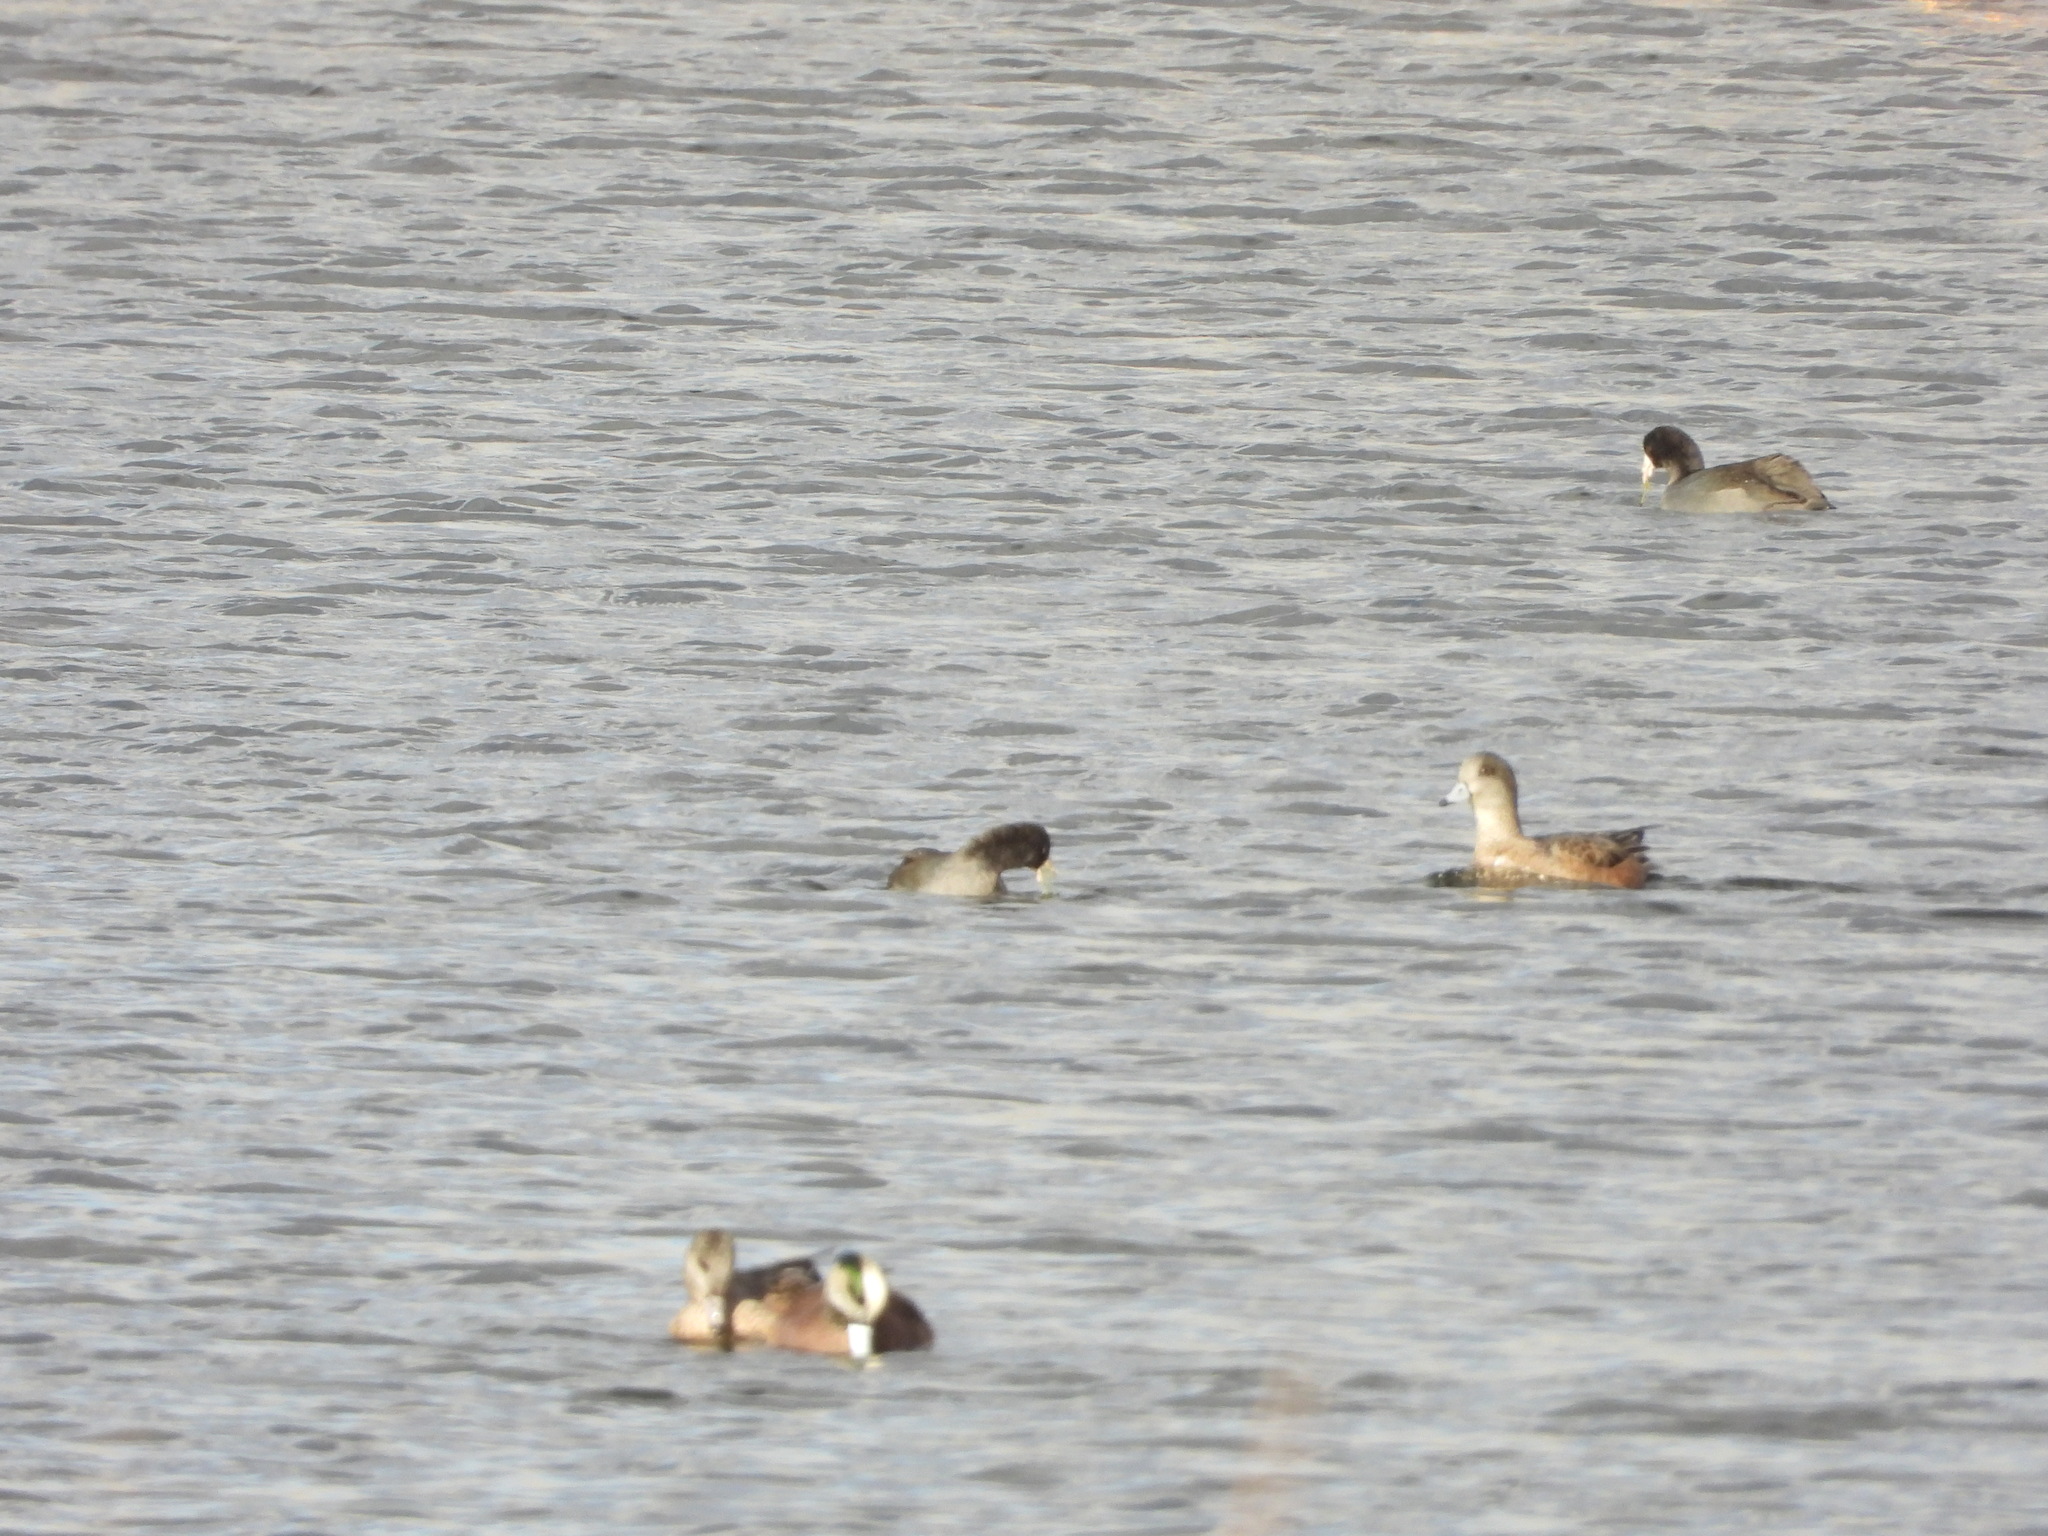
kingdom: Animalia
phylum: Chordata
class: Aves
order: Gruiformes
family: Rallidae
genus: Fulica
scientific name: Fulica americana
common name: American coot
